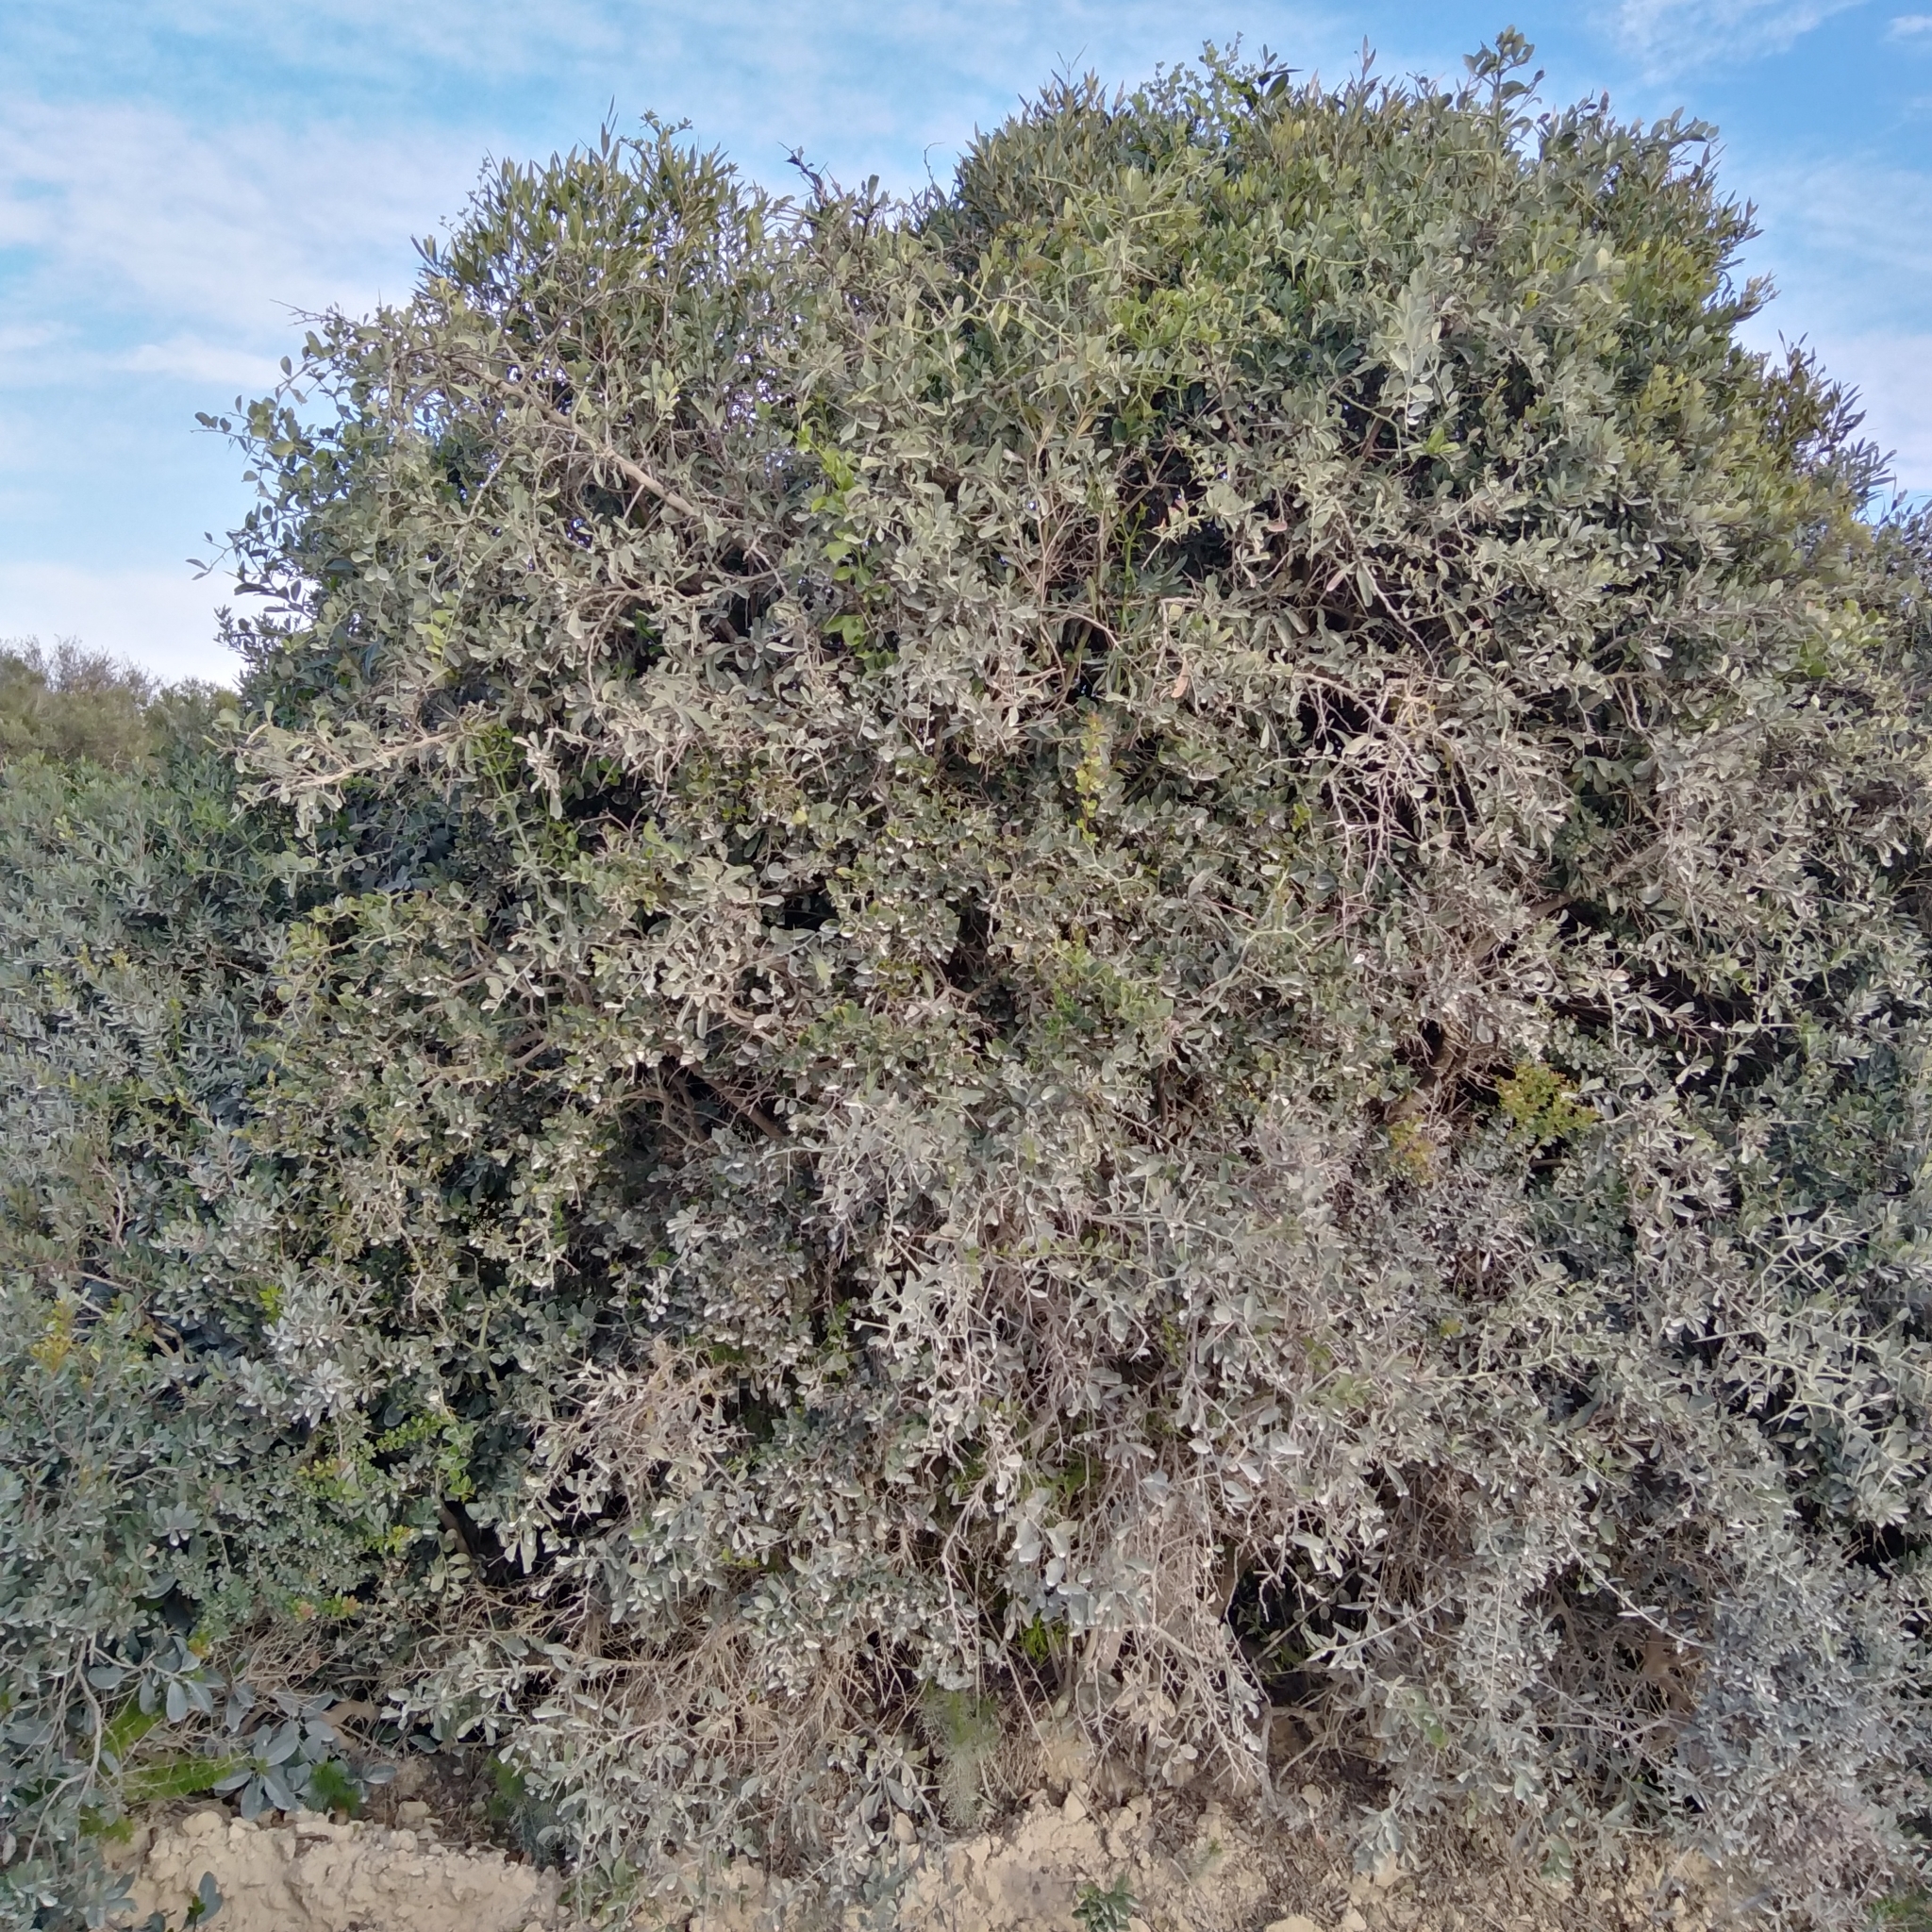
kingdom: Plantae
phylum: Tracheophyta
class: Magnoliopsida
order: Celastrales
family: Celastraceae
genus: Gymnosporia
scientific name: Gymnosporia buxifolia
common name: Common spike-thorn
